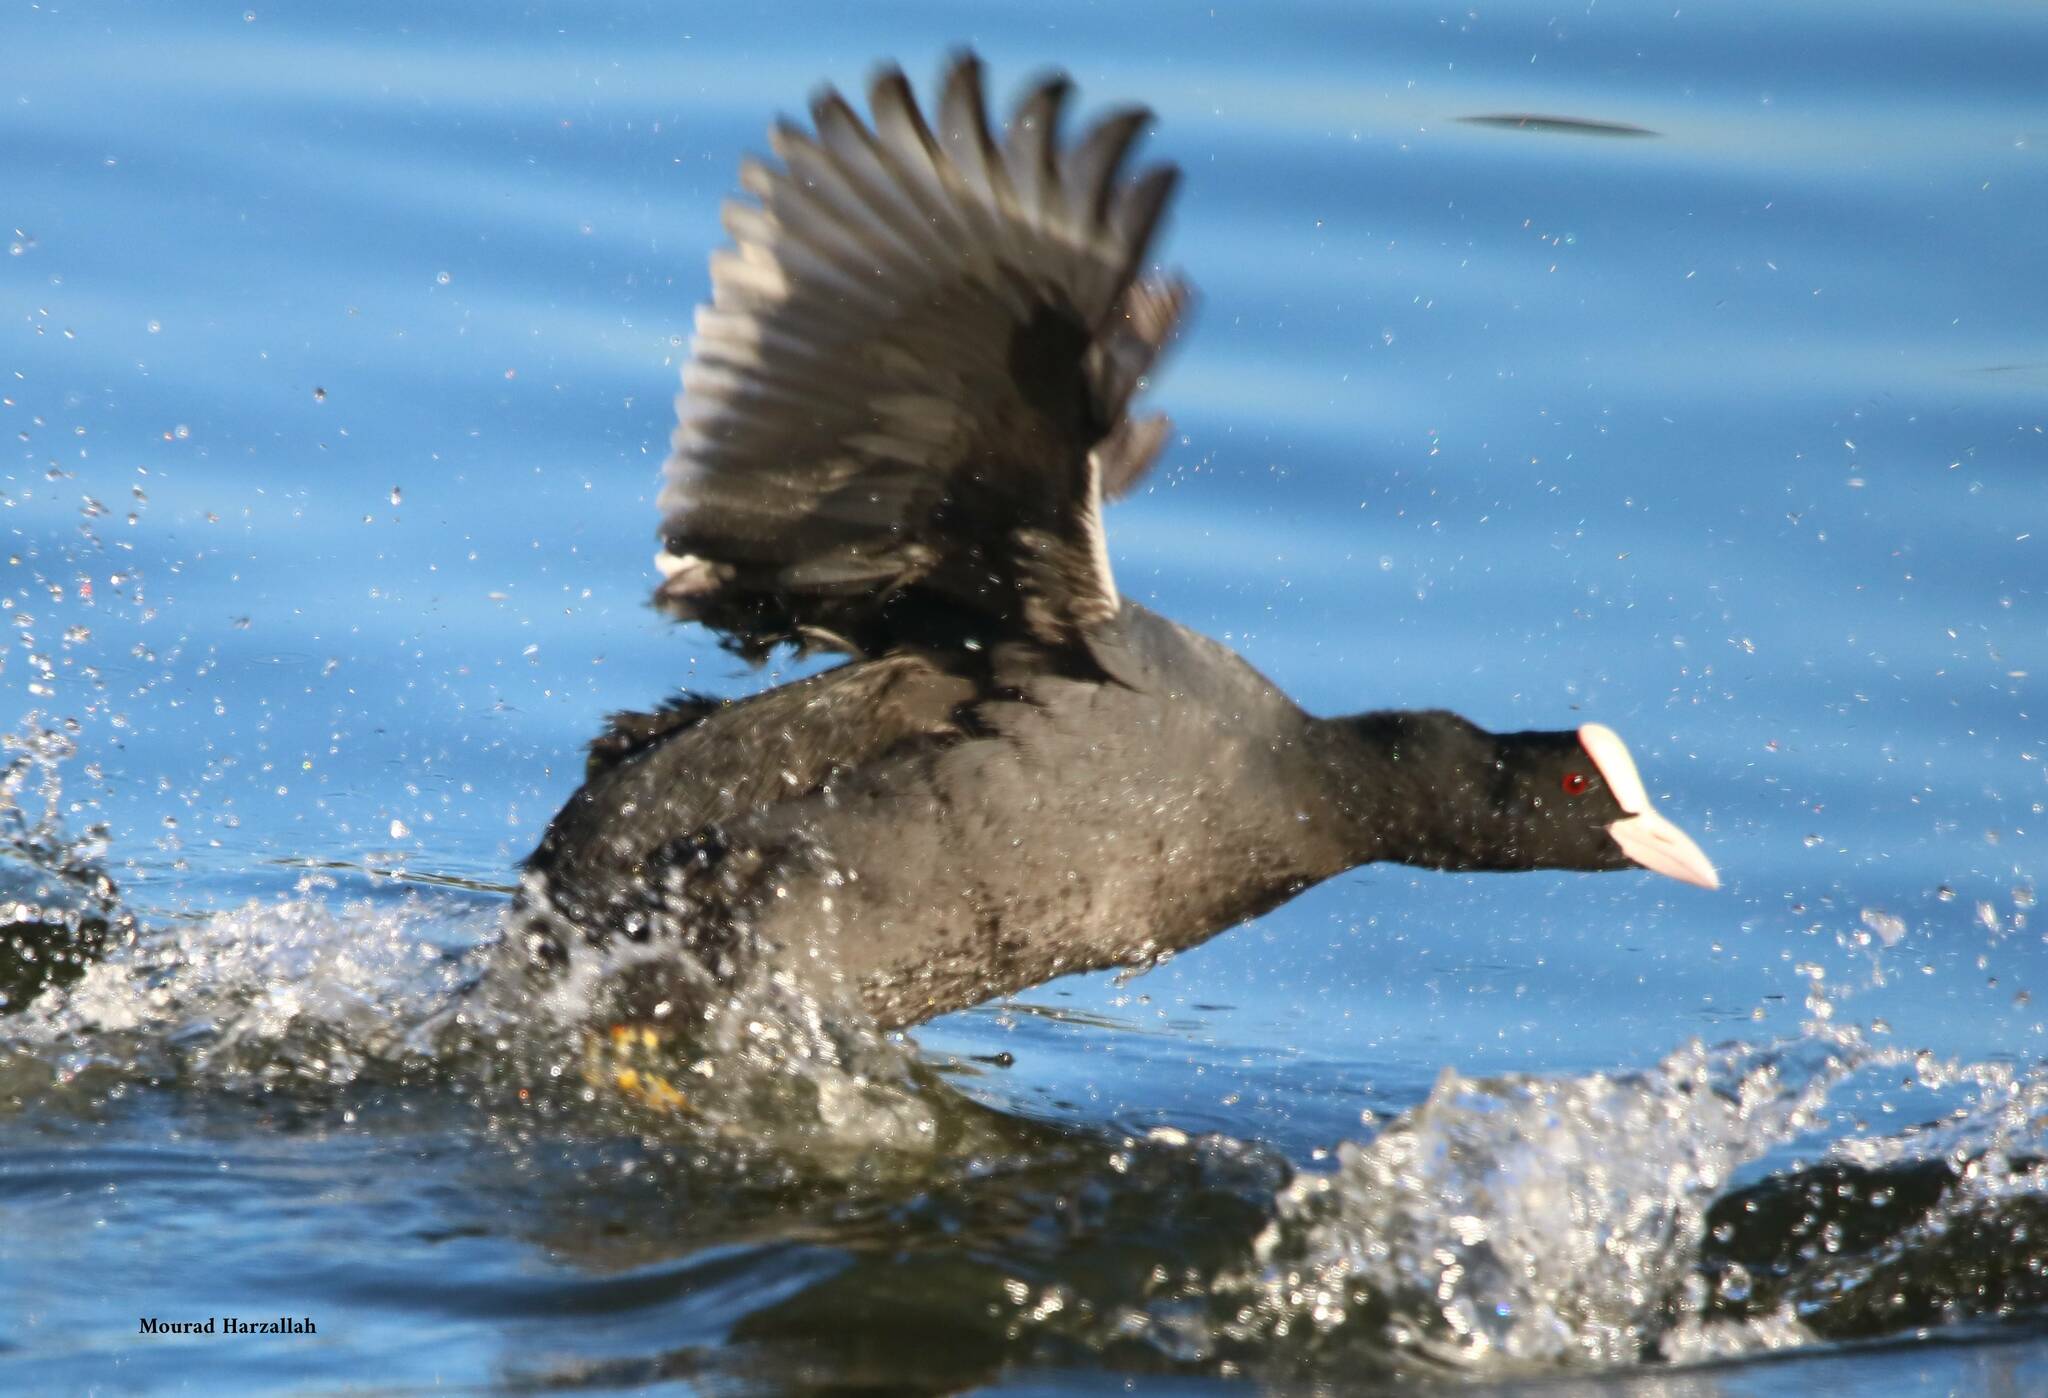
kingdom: Animalia
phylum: Chordata
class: Aves
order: Gruiformes
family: Rallidae
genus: Fulica
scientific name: Fulica atra
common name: Eurasian coot
